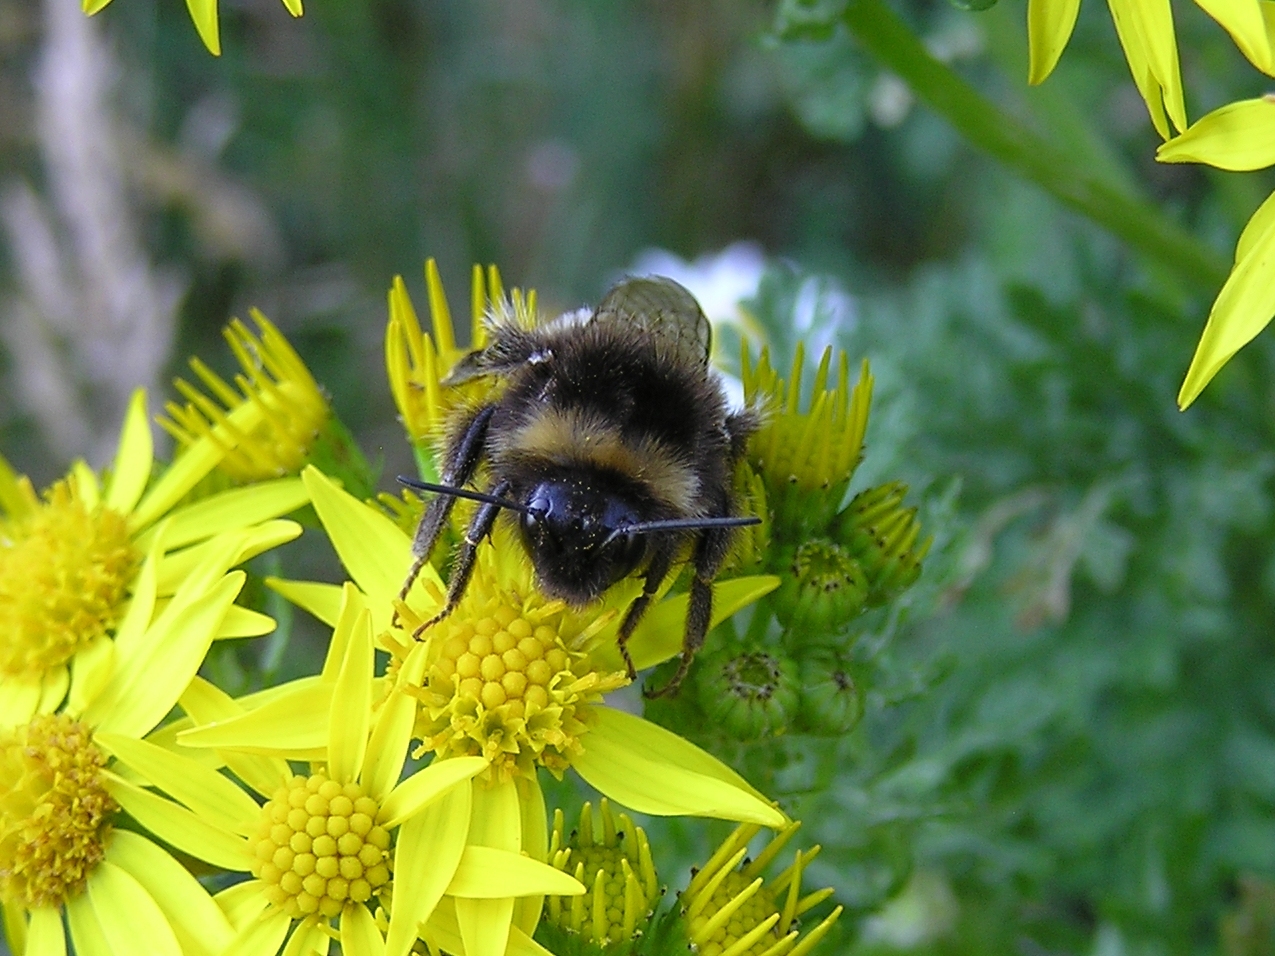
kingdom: Animalia
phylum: Arthropoda
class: Insecta
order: Hymenoptera
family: Apidae
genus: Bombus
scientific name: Bombus terrestris
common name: Buff-tailed bumblebee
